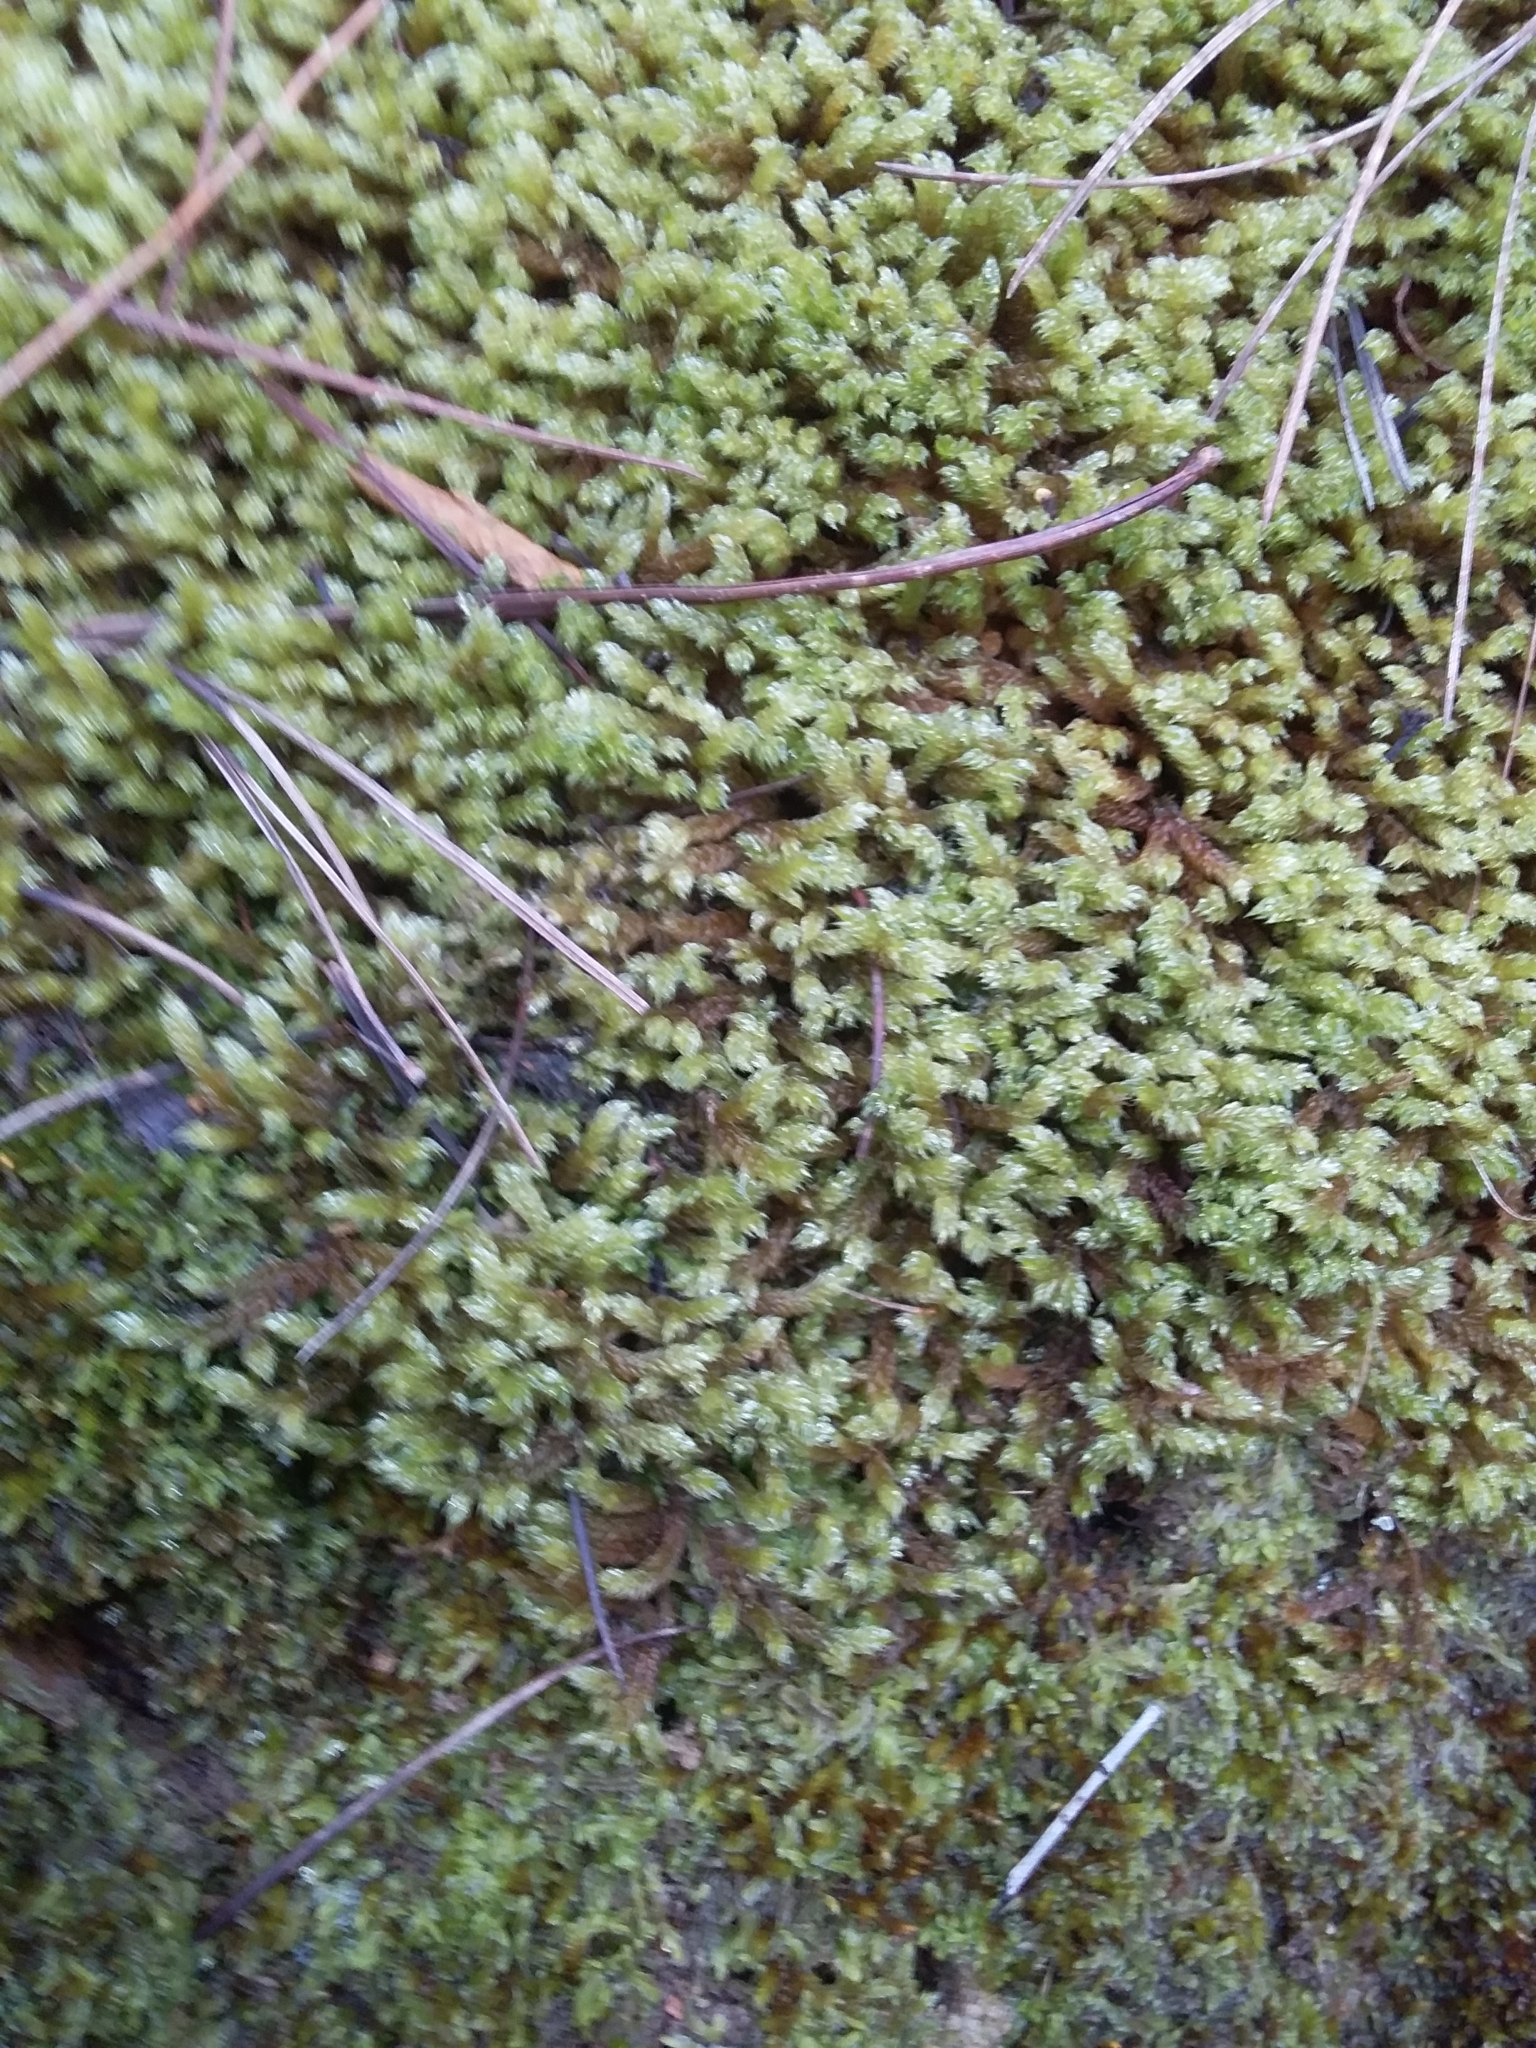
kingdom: Plantae
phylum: Bryophyta
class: Bryopsida
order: Hypnales
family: Hypnaceae
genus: Hypnum
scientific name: Hypnum cupressiforme
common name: Cypress-leaved plait-moss
